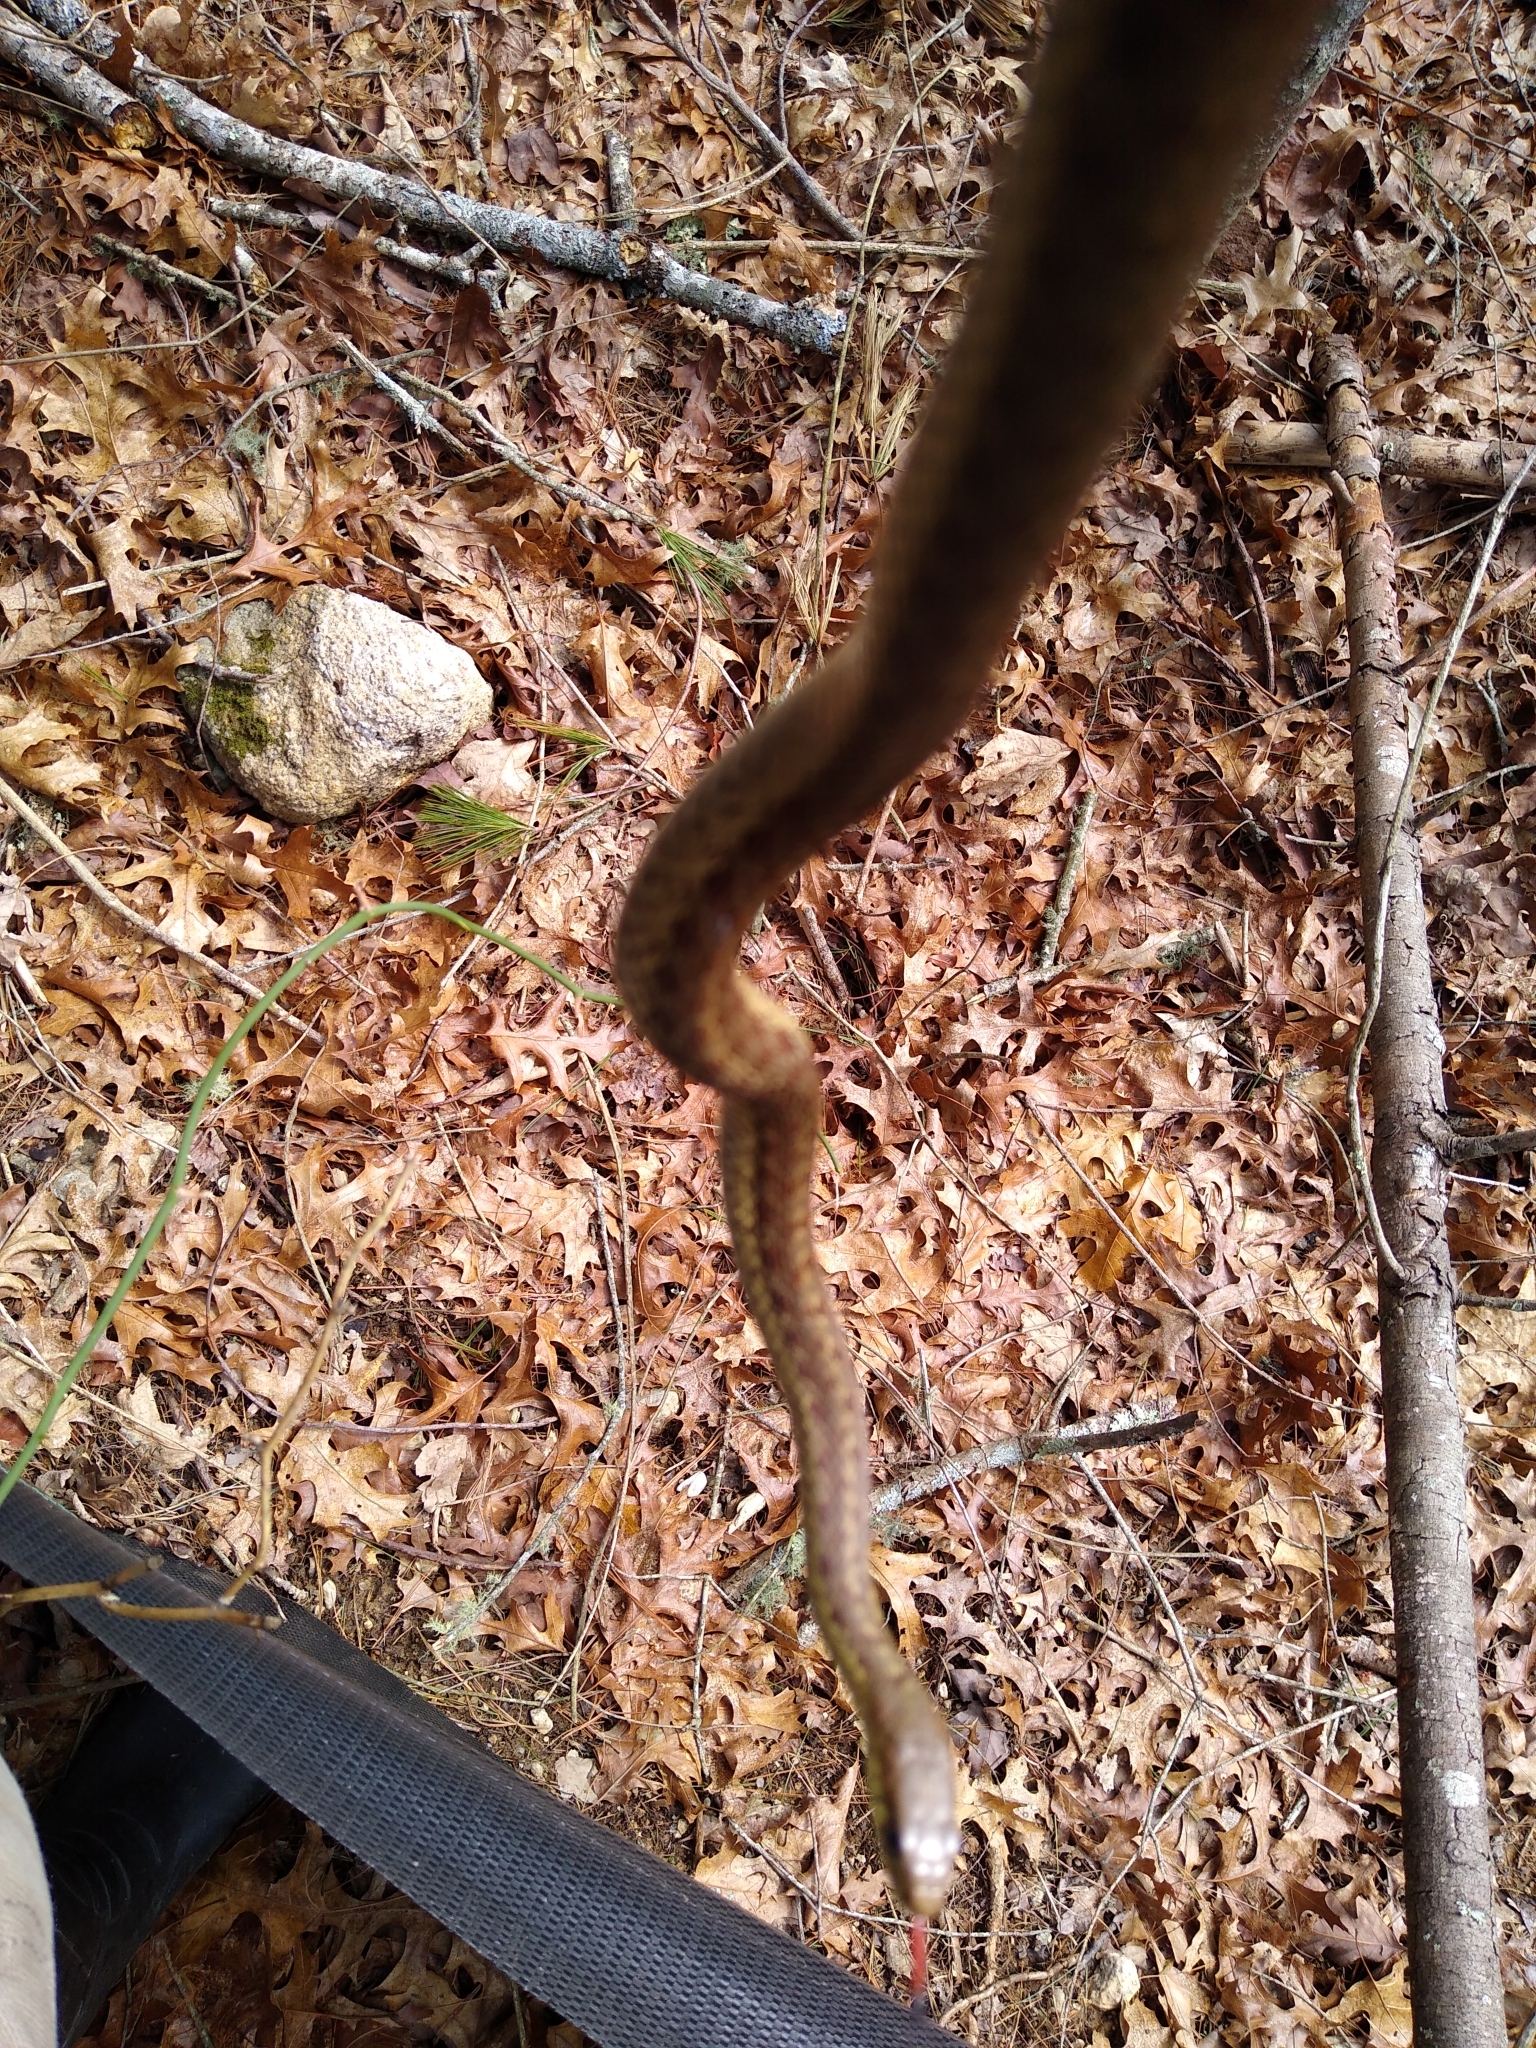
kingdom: Animalia
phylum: Chordata
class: Squamata
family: Colubridae
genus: Thamnophis
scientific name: Thamnophis sirtalis
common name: Common garter snake
